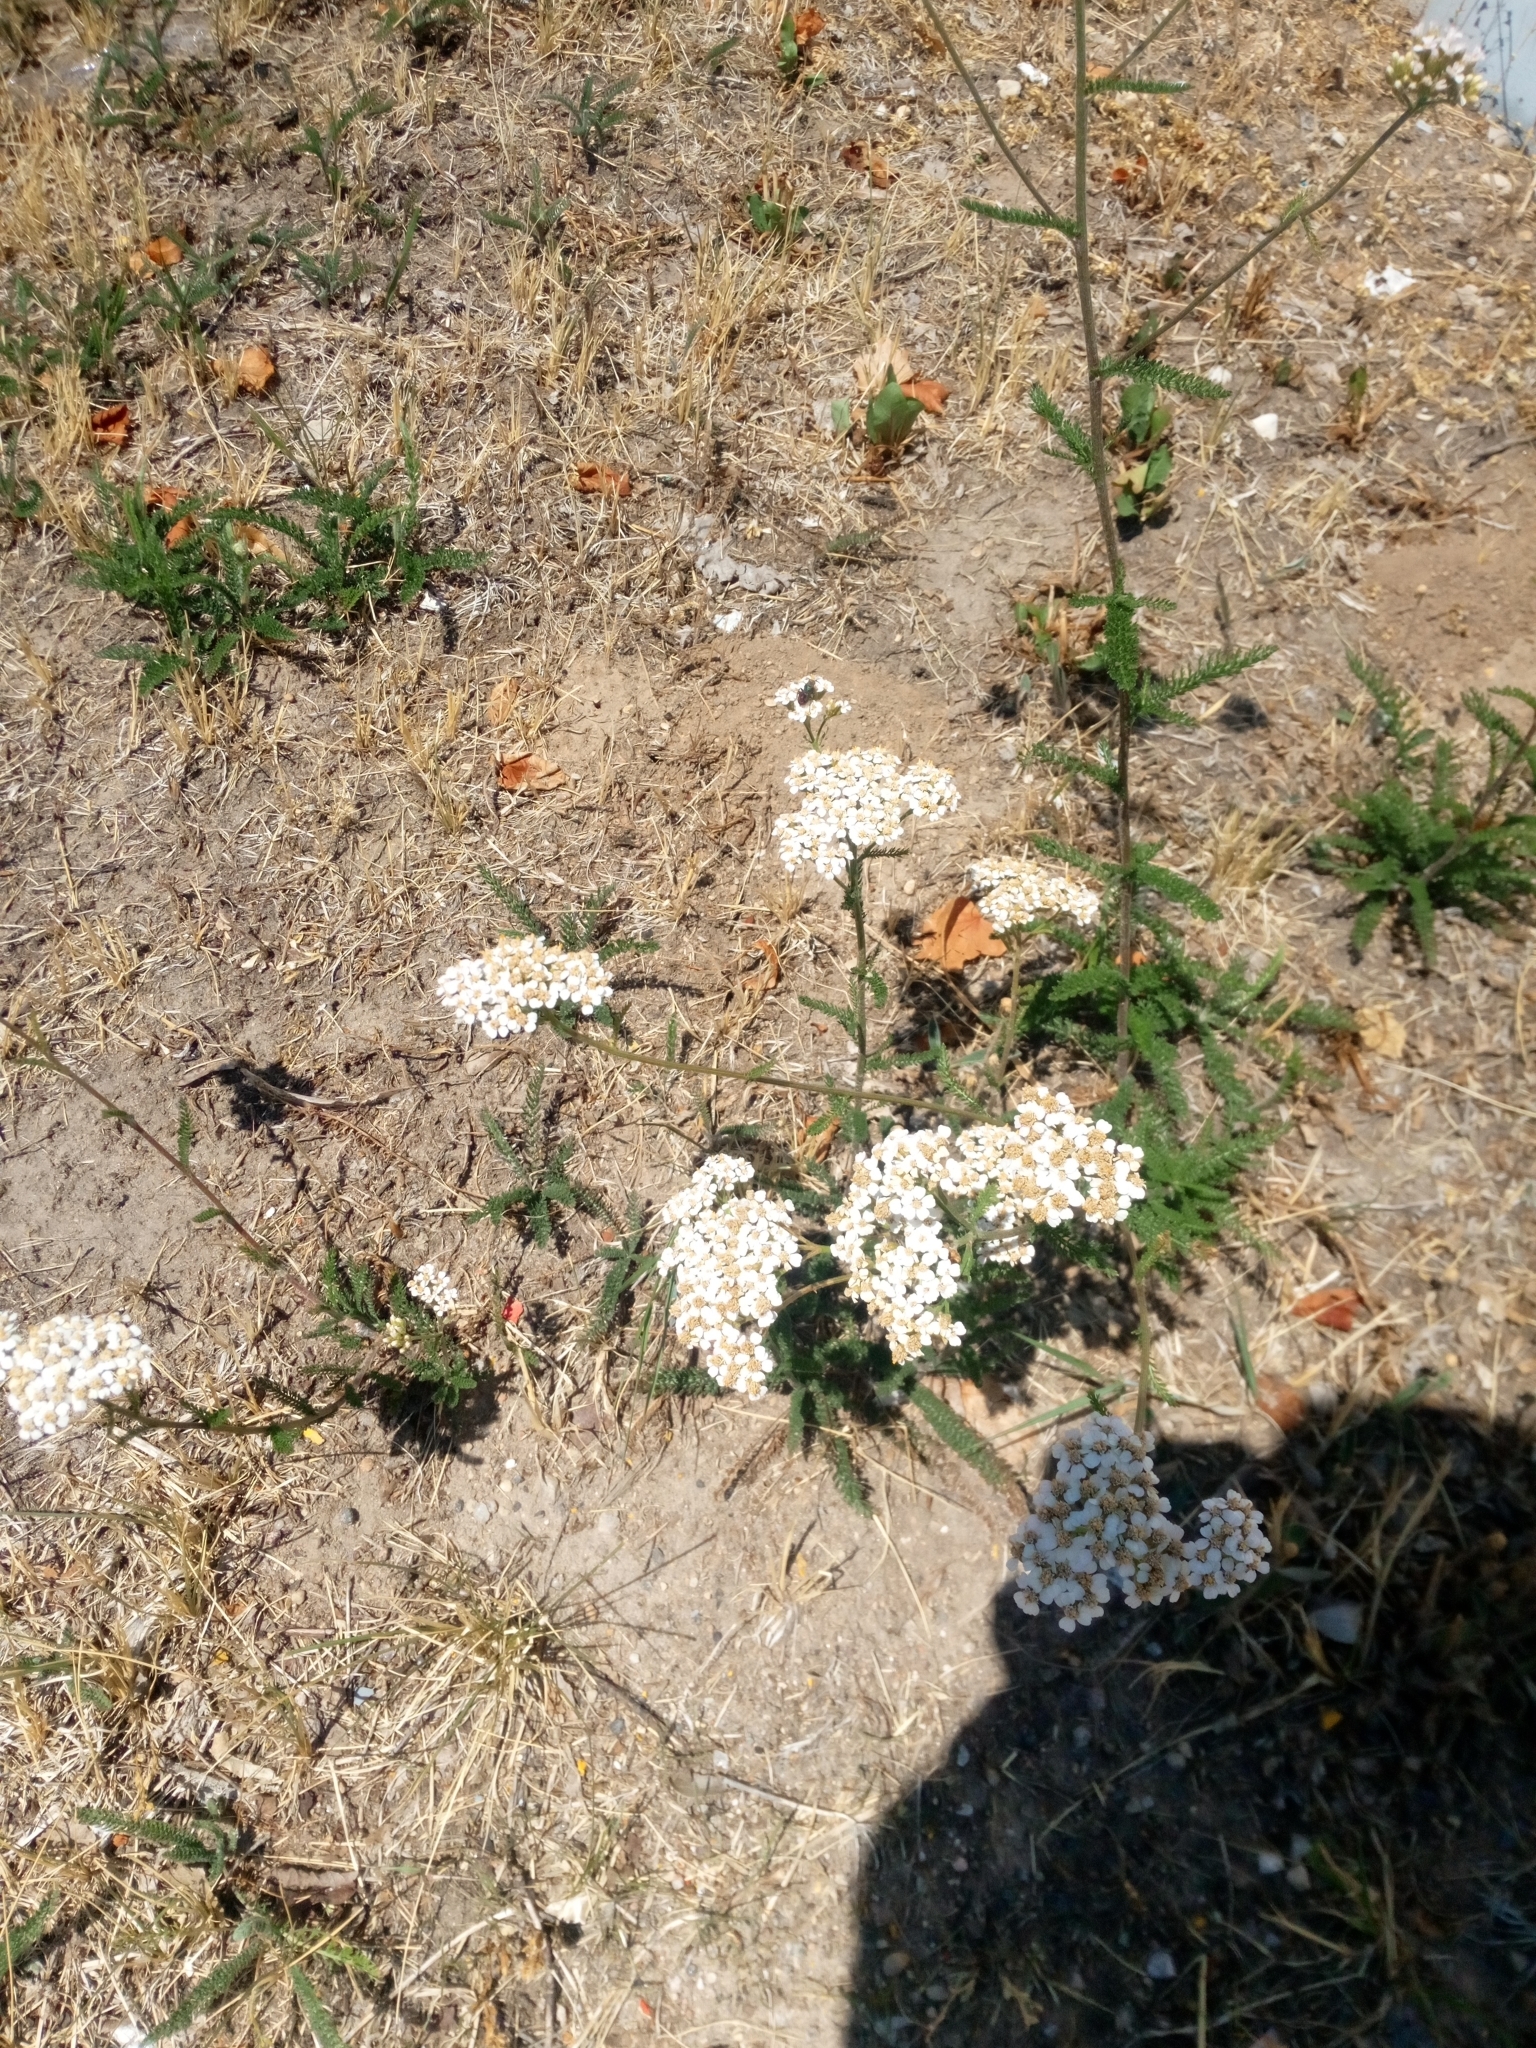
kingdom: Plantae
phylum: Tracheophyta
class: Magnoliopsida
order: Asterales
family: Asteraceae
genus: Achillea
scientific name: Achillea millefolium
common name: Yarrow
